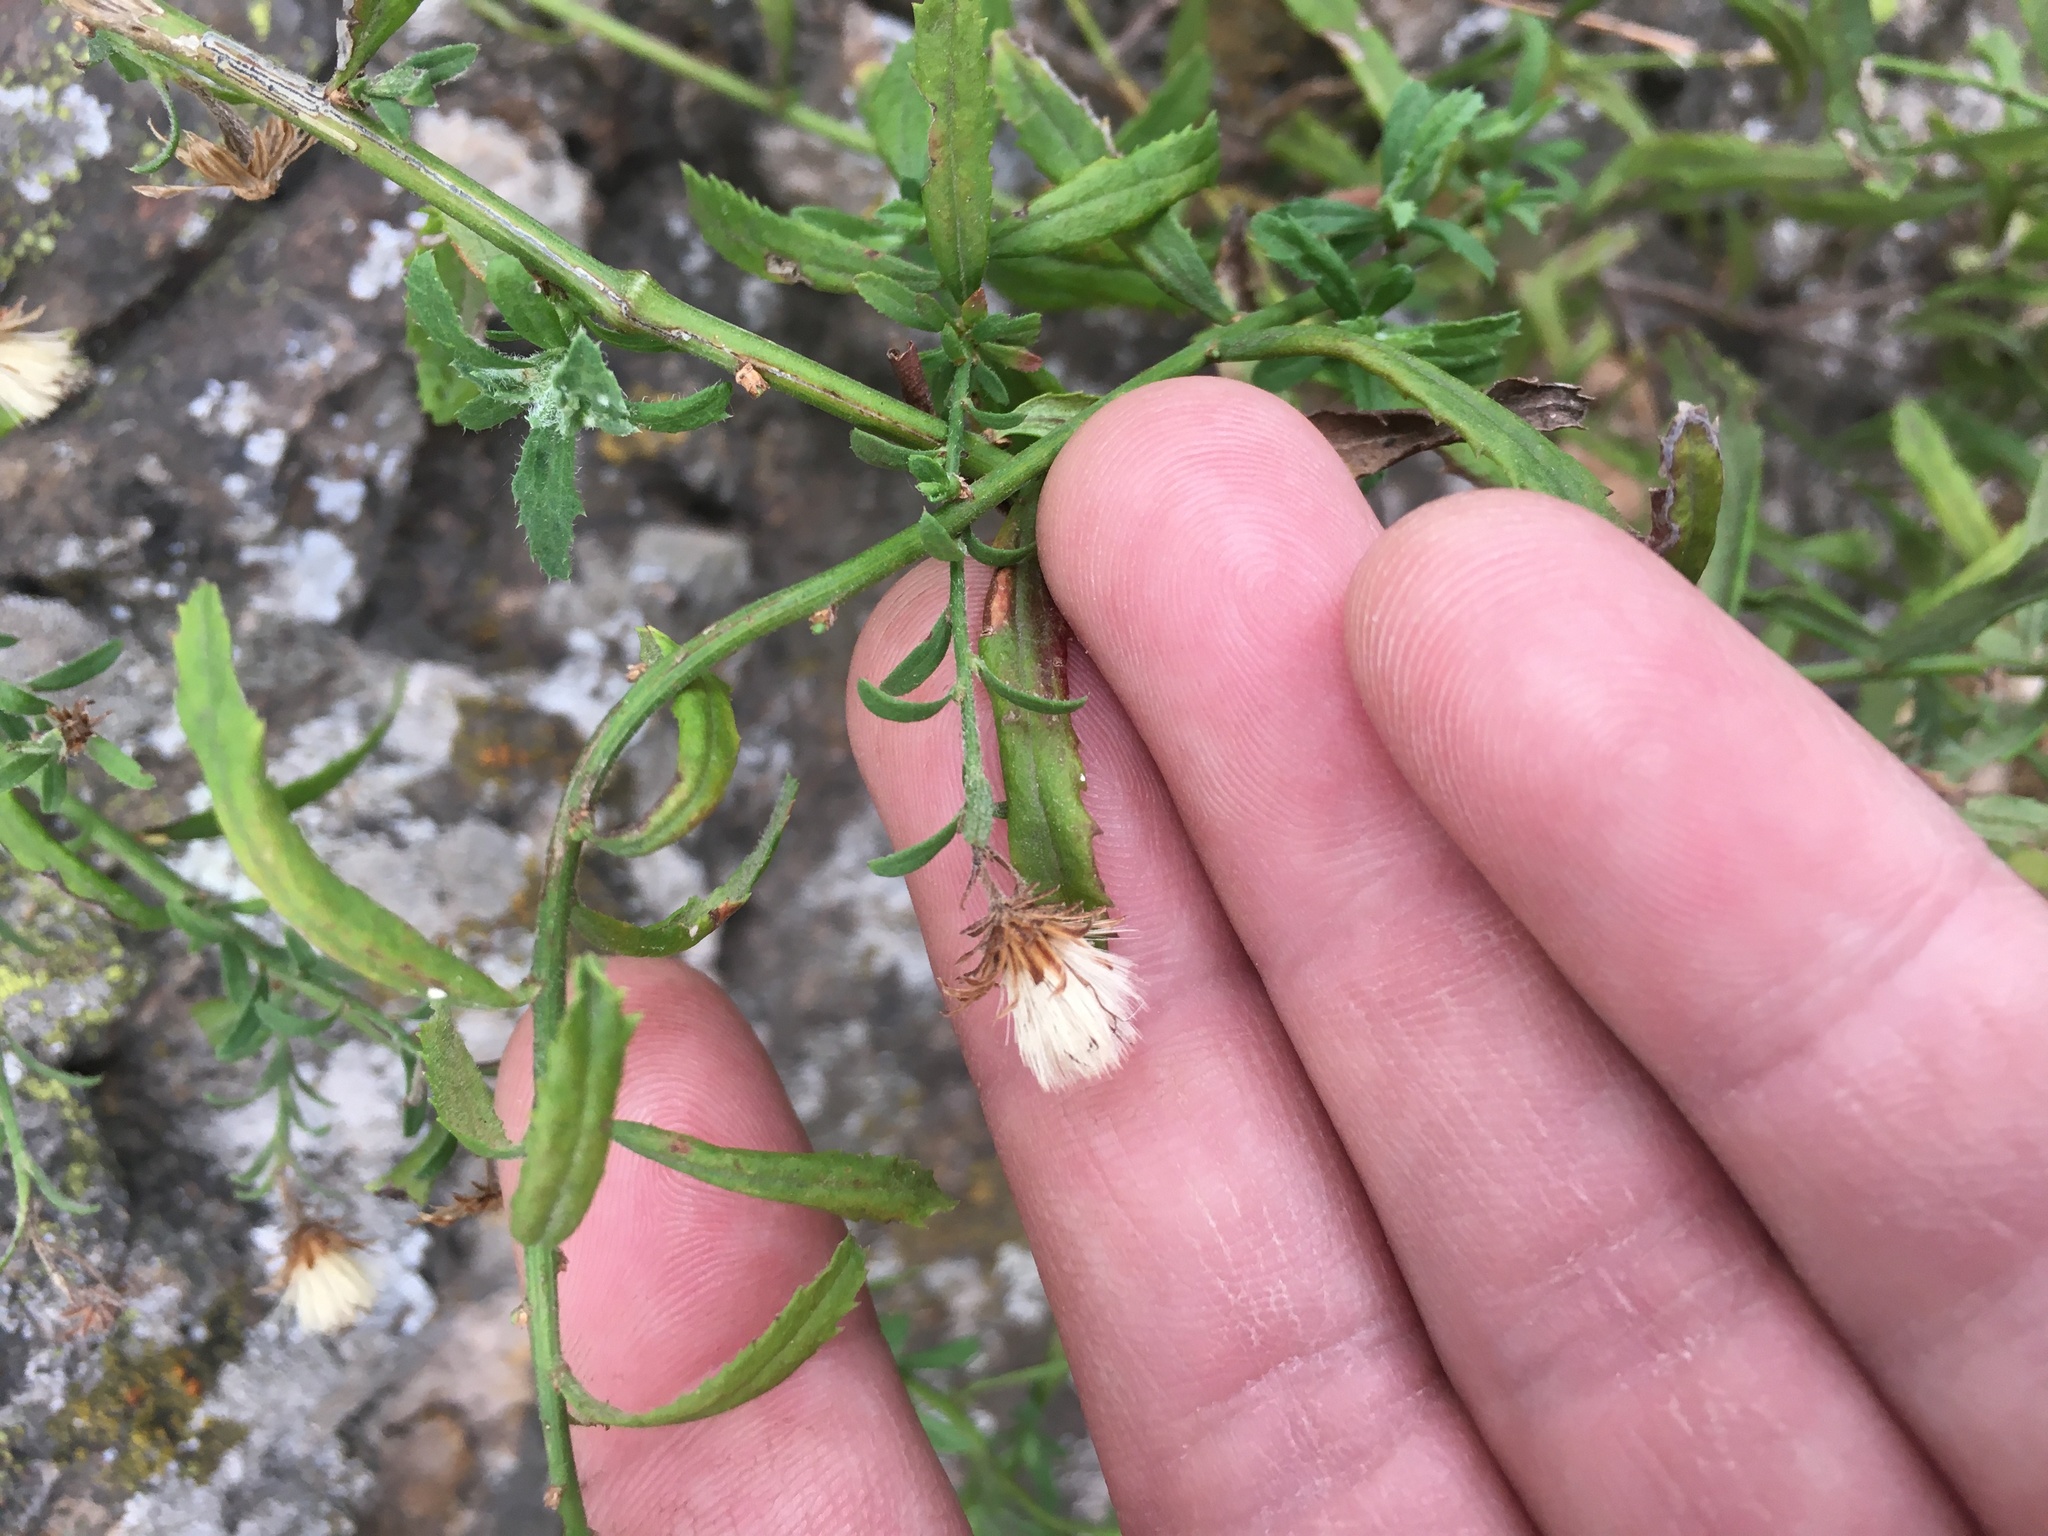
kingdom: Plantae
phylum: Tracheophyta
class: Magnoliopsida
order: Asterales
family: Asteraceae
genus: Baccharis
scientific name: Baccharis plummerae
